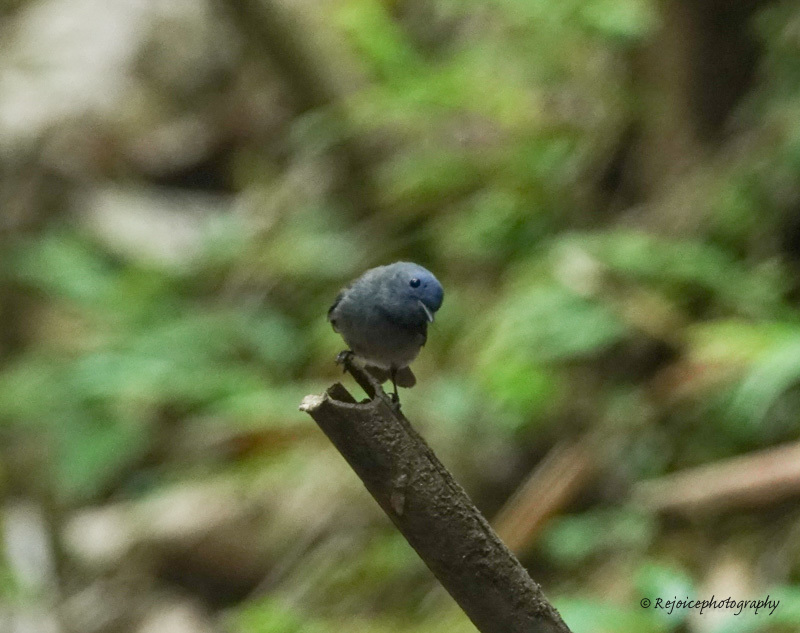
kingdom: Animalia
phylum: Chordata
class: Aves
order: Passeriformes
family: Monarchidae
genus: Hypothymis
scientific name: Hypothymis azurea
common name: Black-naped monarch
